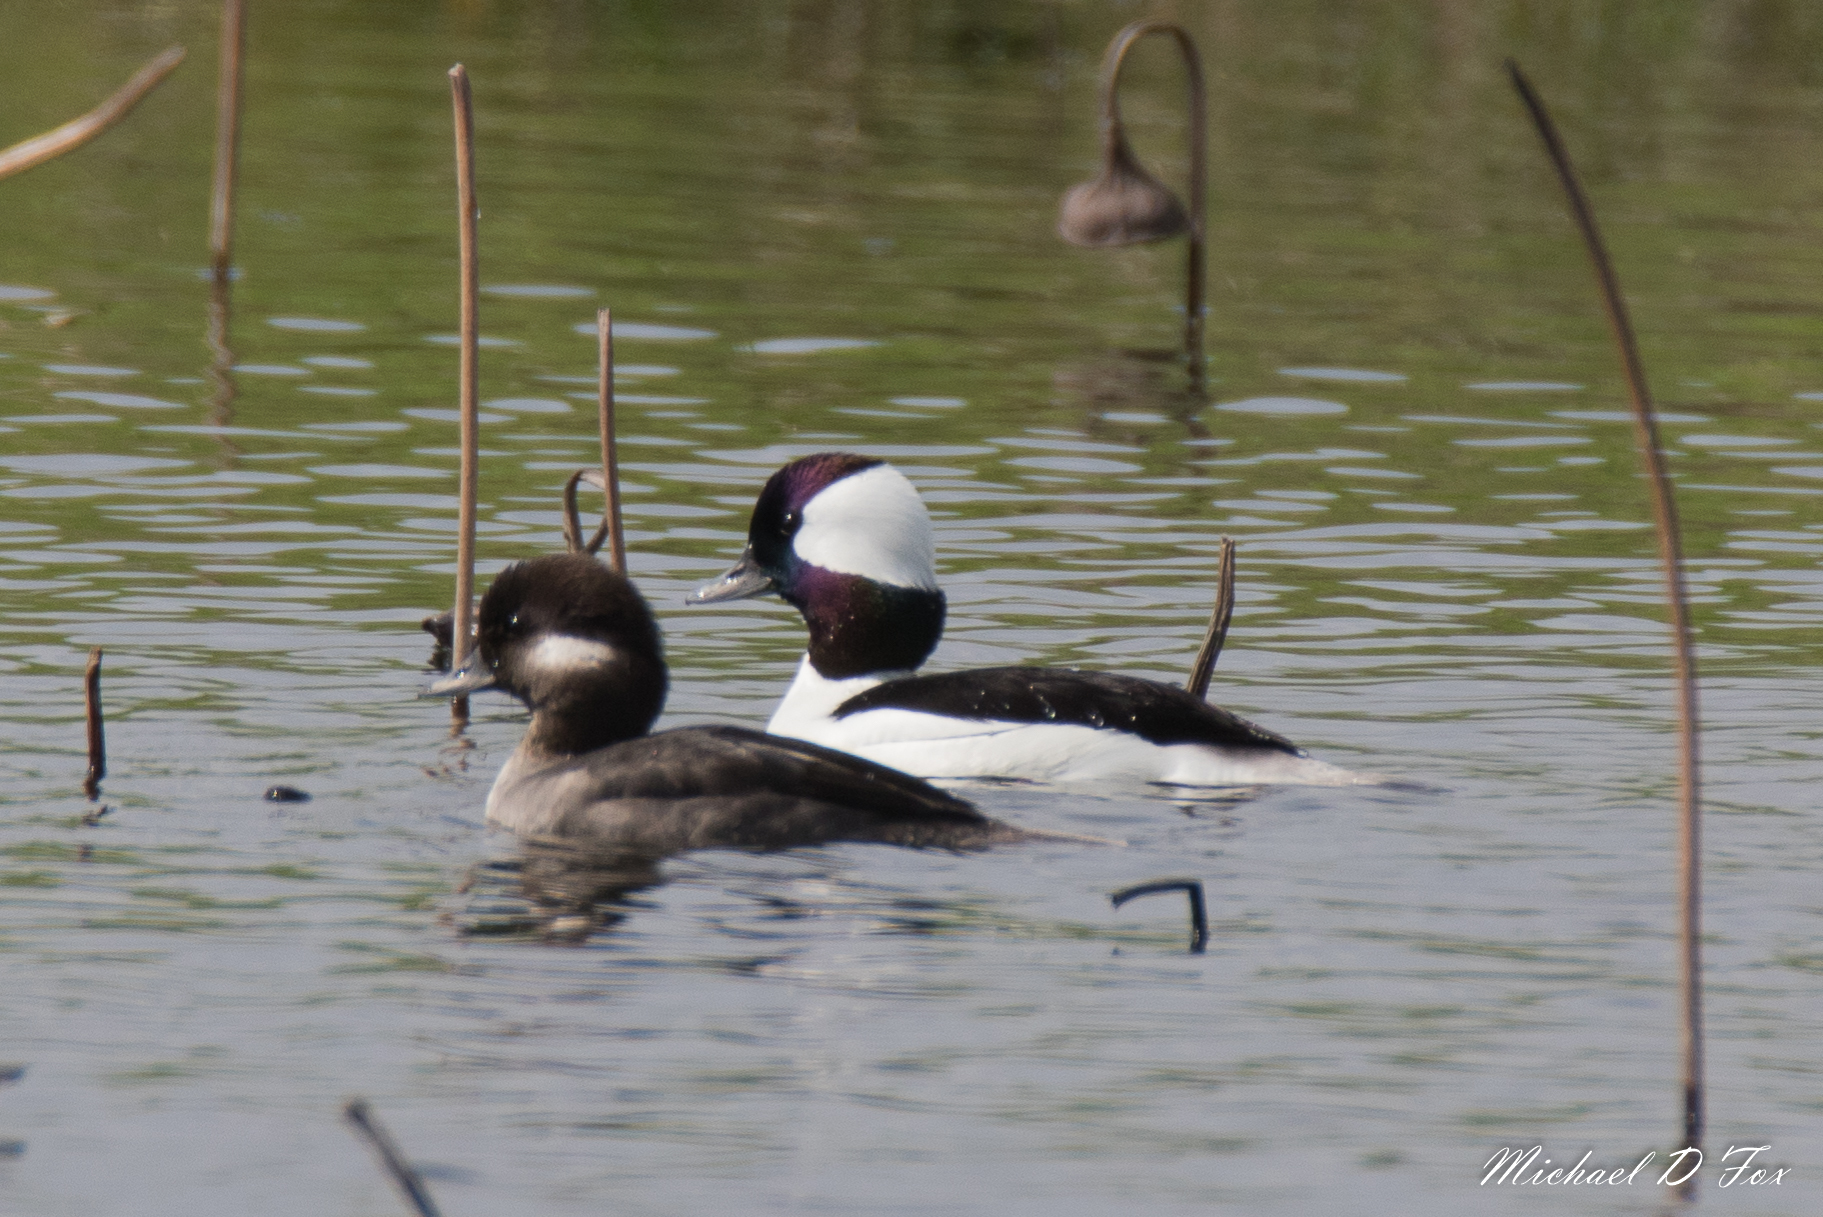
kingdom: Animalia
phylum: Chordata
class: Aves
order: Anseriformes
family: Anatidae
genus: Bucephala
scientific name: Bucephala albeola
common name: Bufflehead
